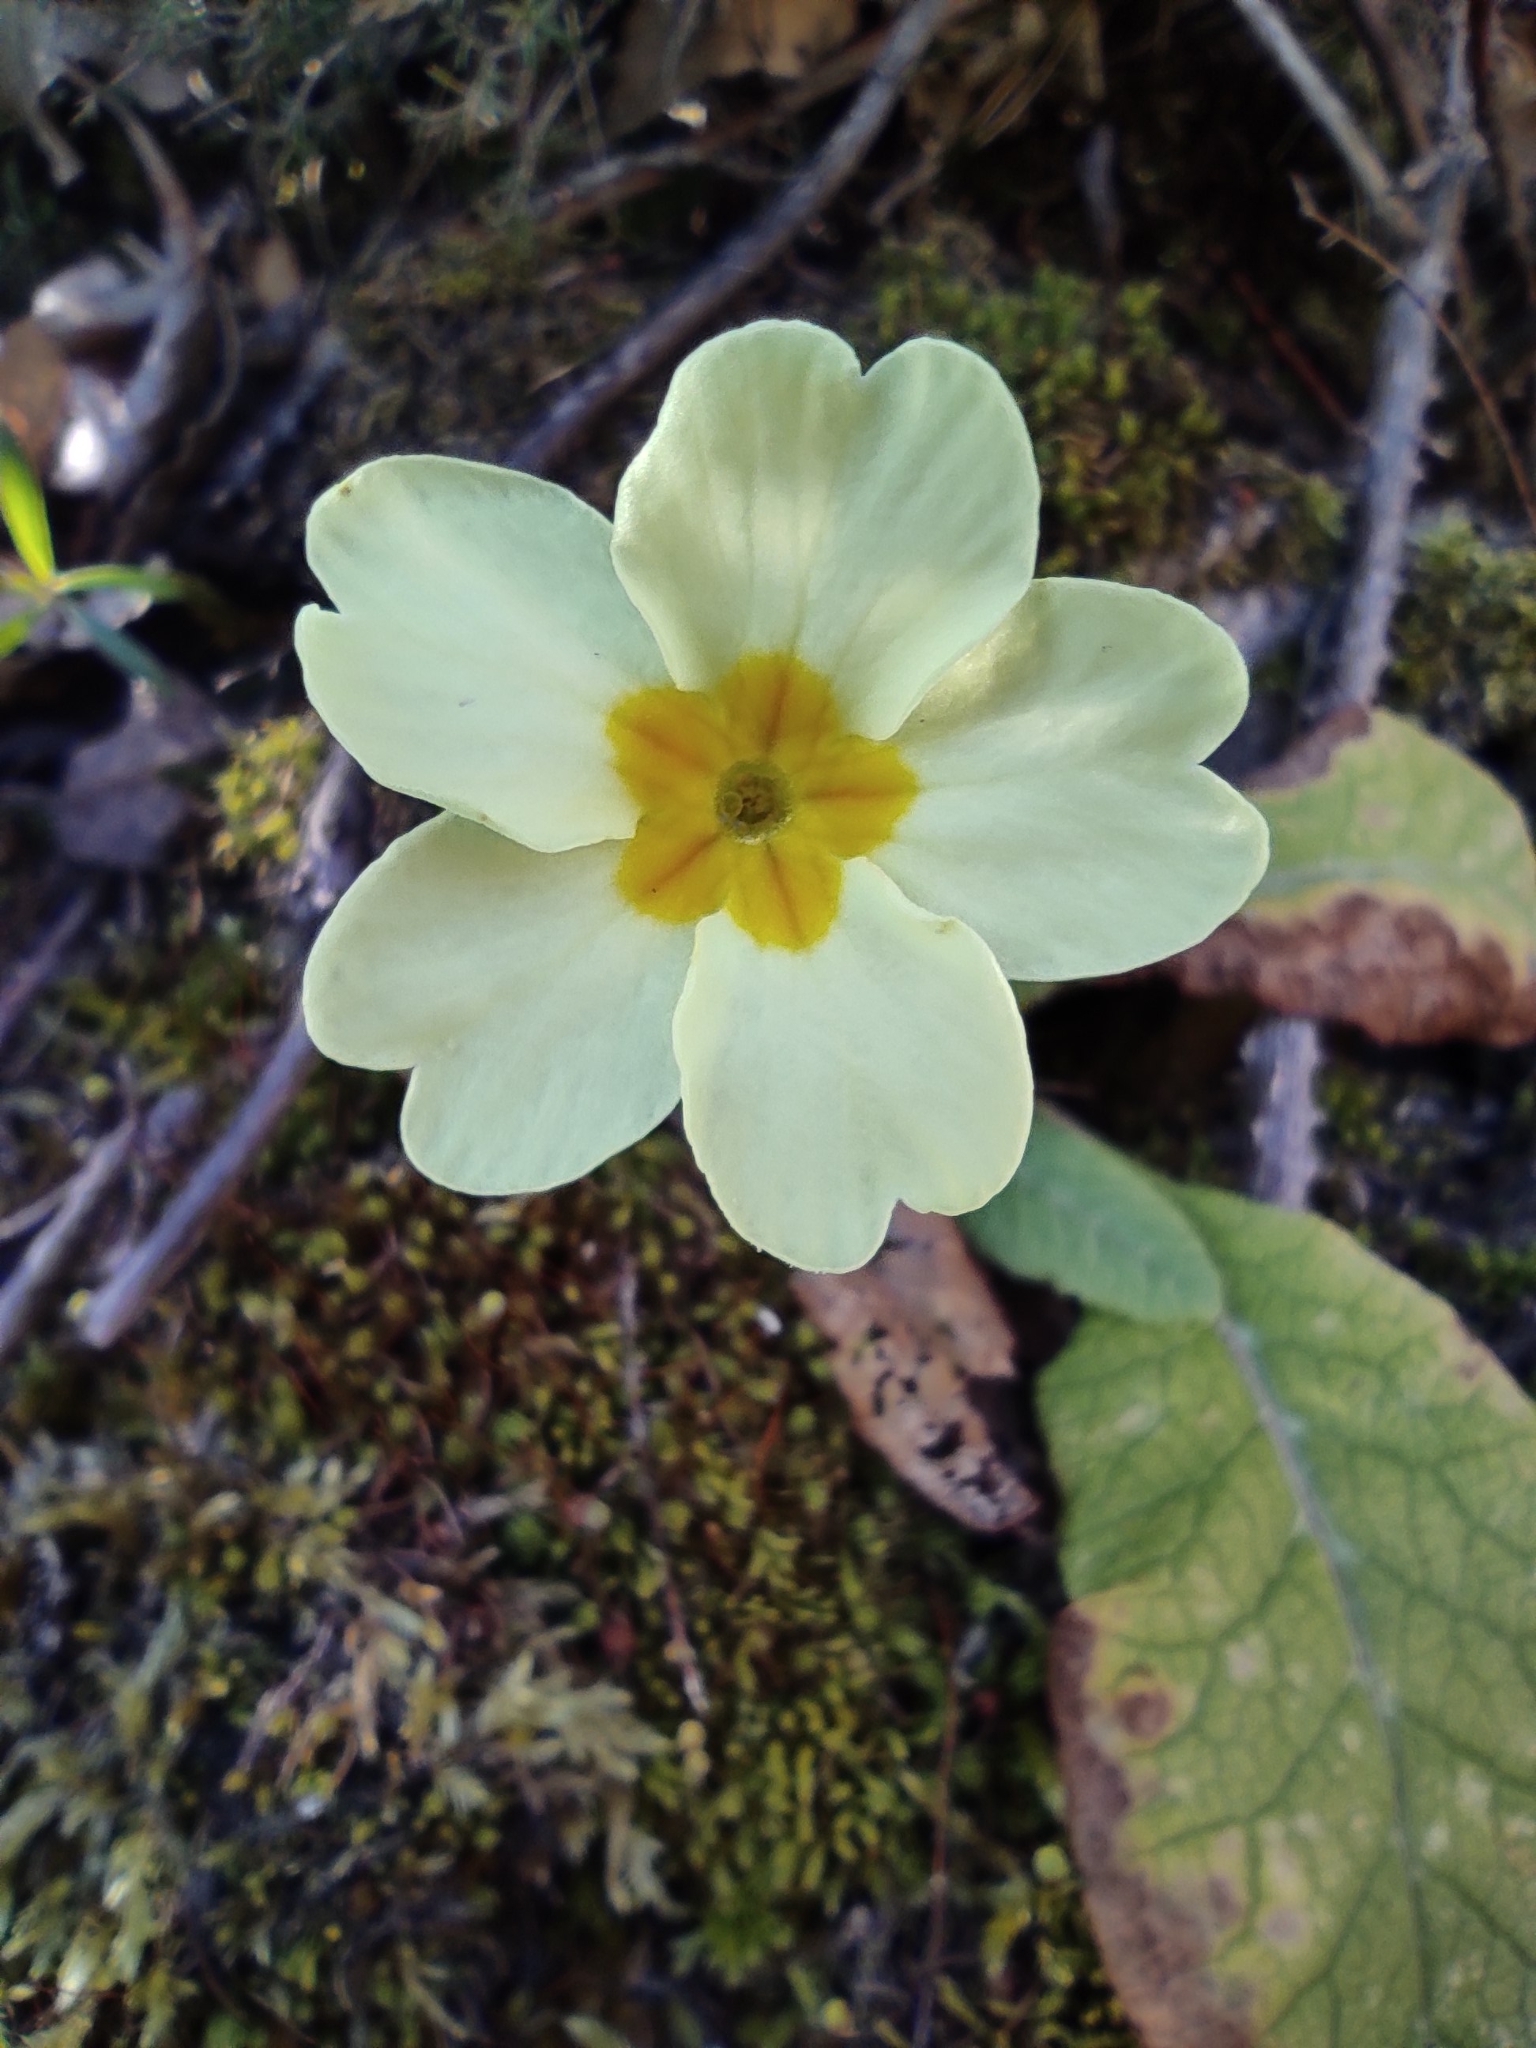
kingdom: Plantae
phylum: Tracheophyta
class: Magnoliopsida
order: Ericales
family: Primulaceae
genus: Primula
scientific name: Primula vulgaris
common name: Primrose
